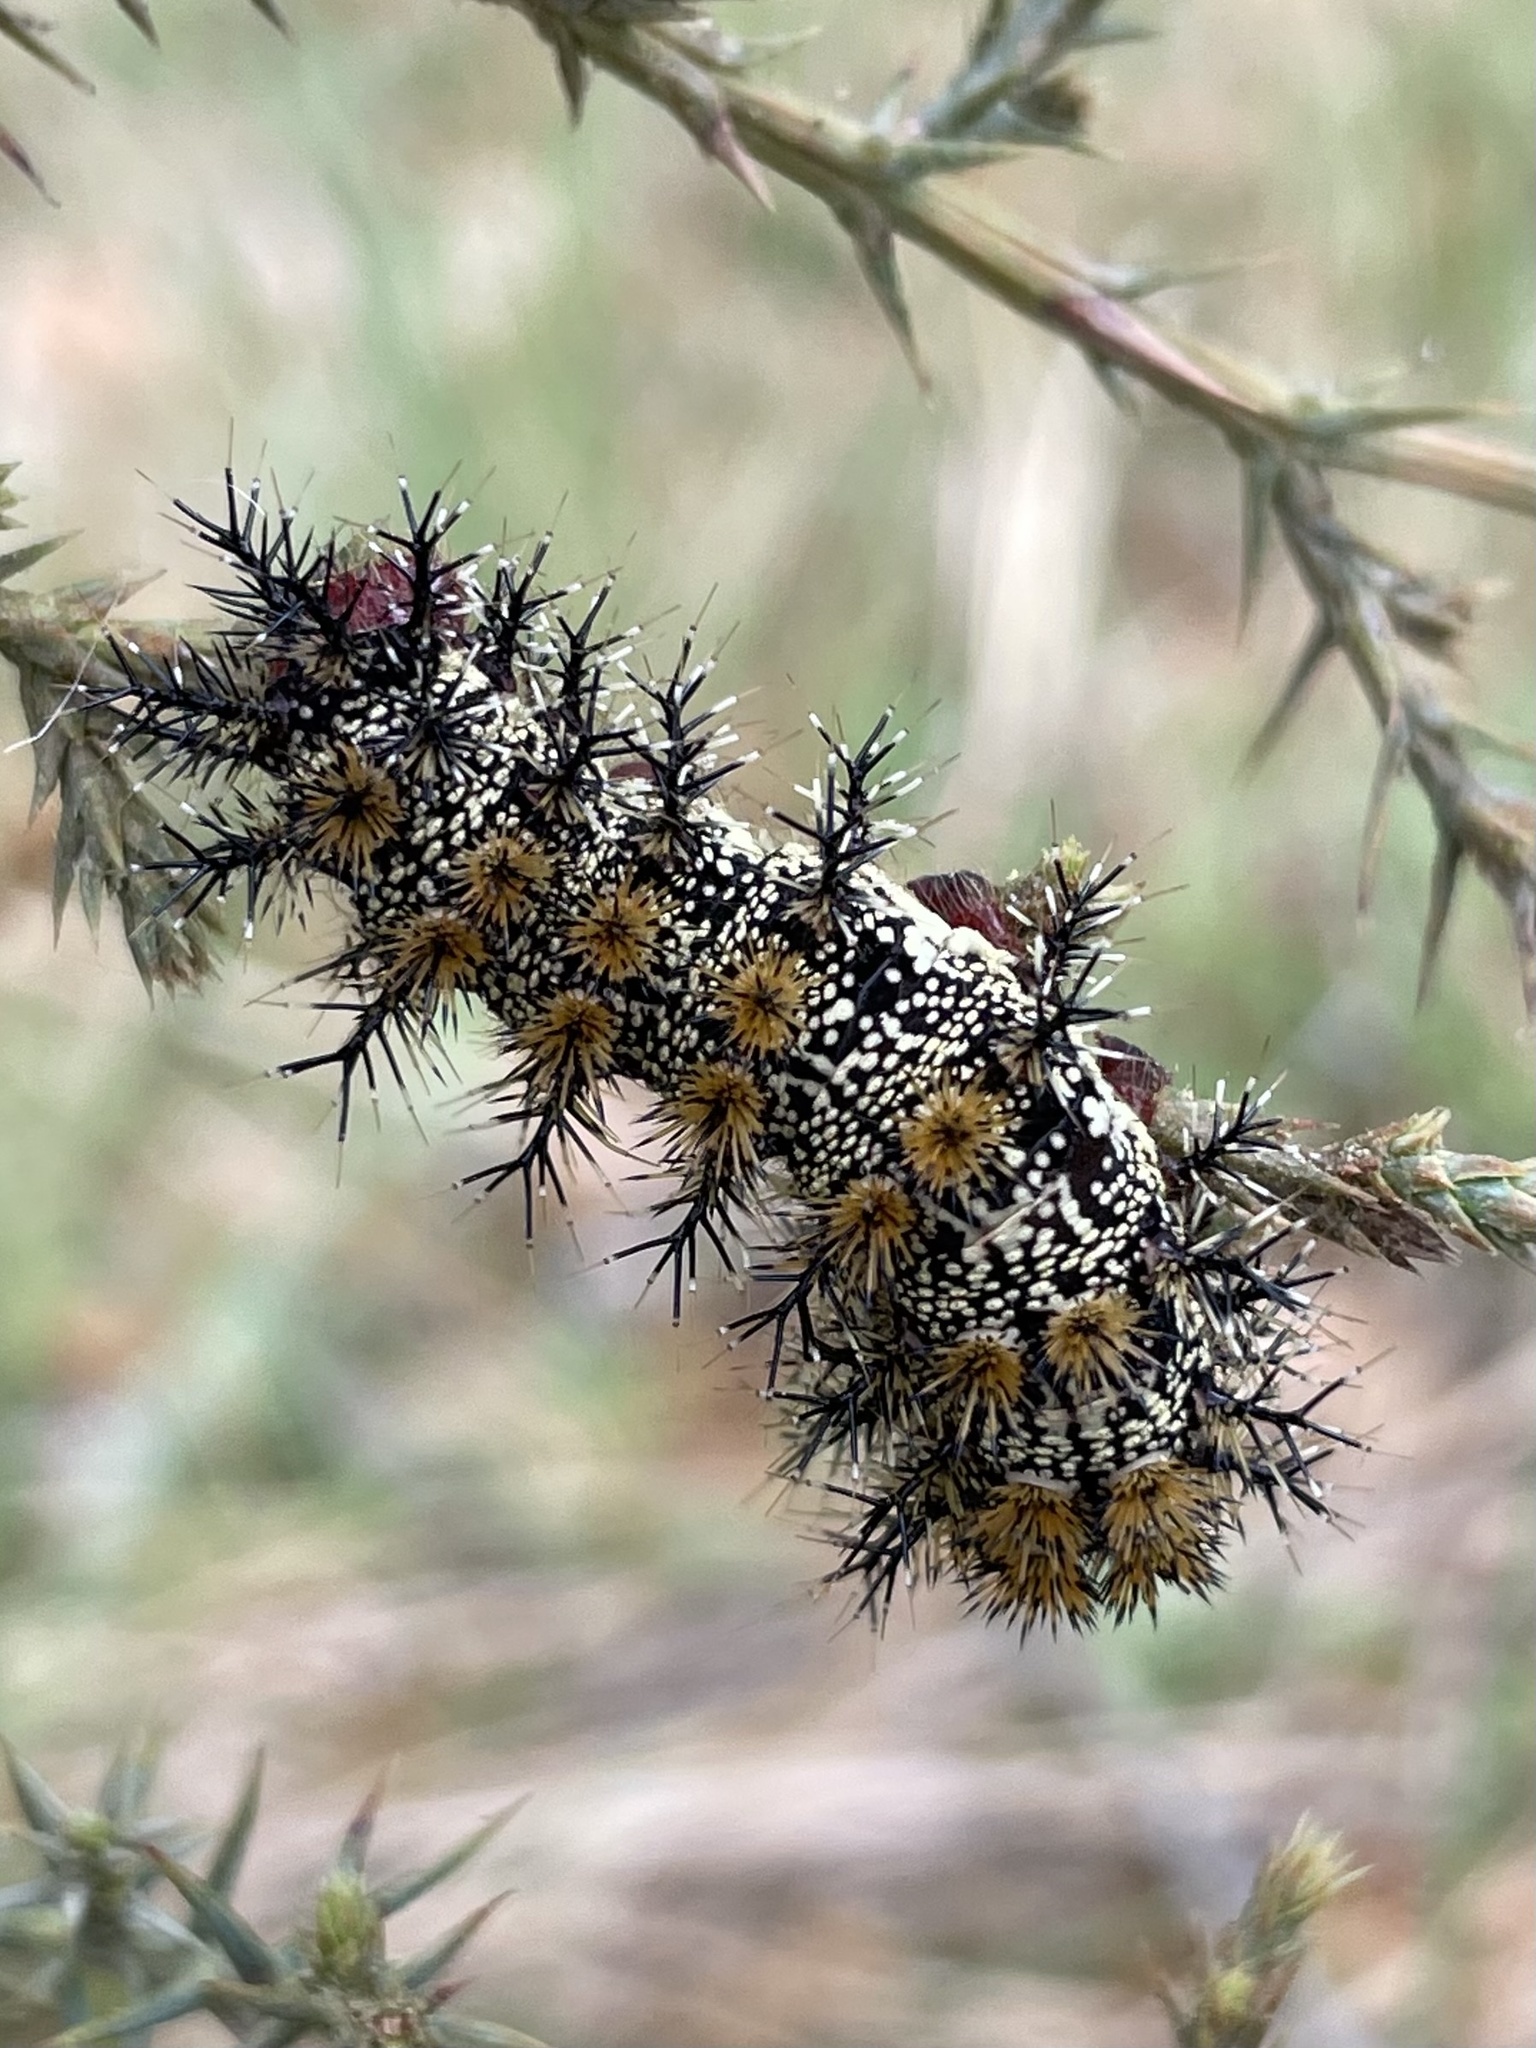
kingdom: Animalia
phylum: Arthropoda
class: Insecta
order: Lepidoptera
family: Saturniidae
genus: Hemileuca
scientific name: Hemileuca peigleri
